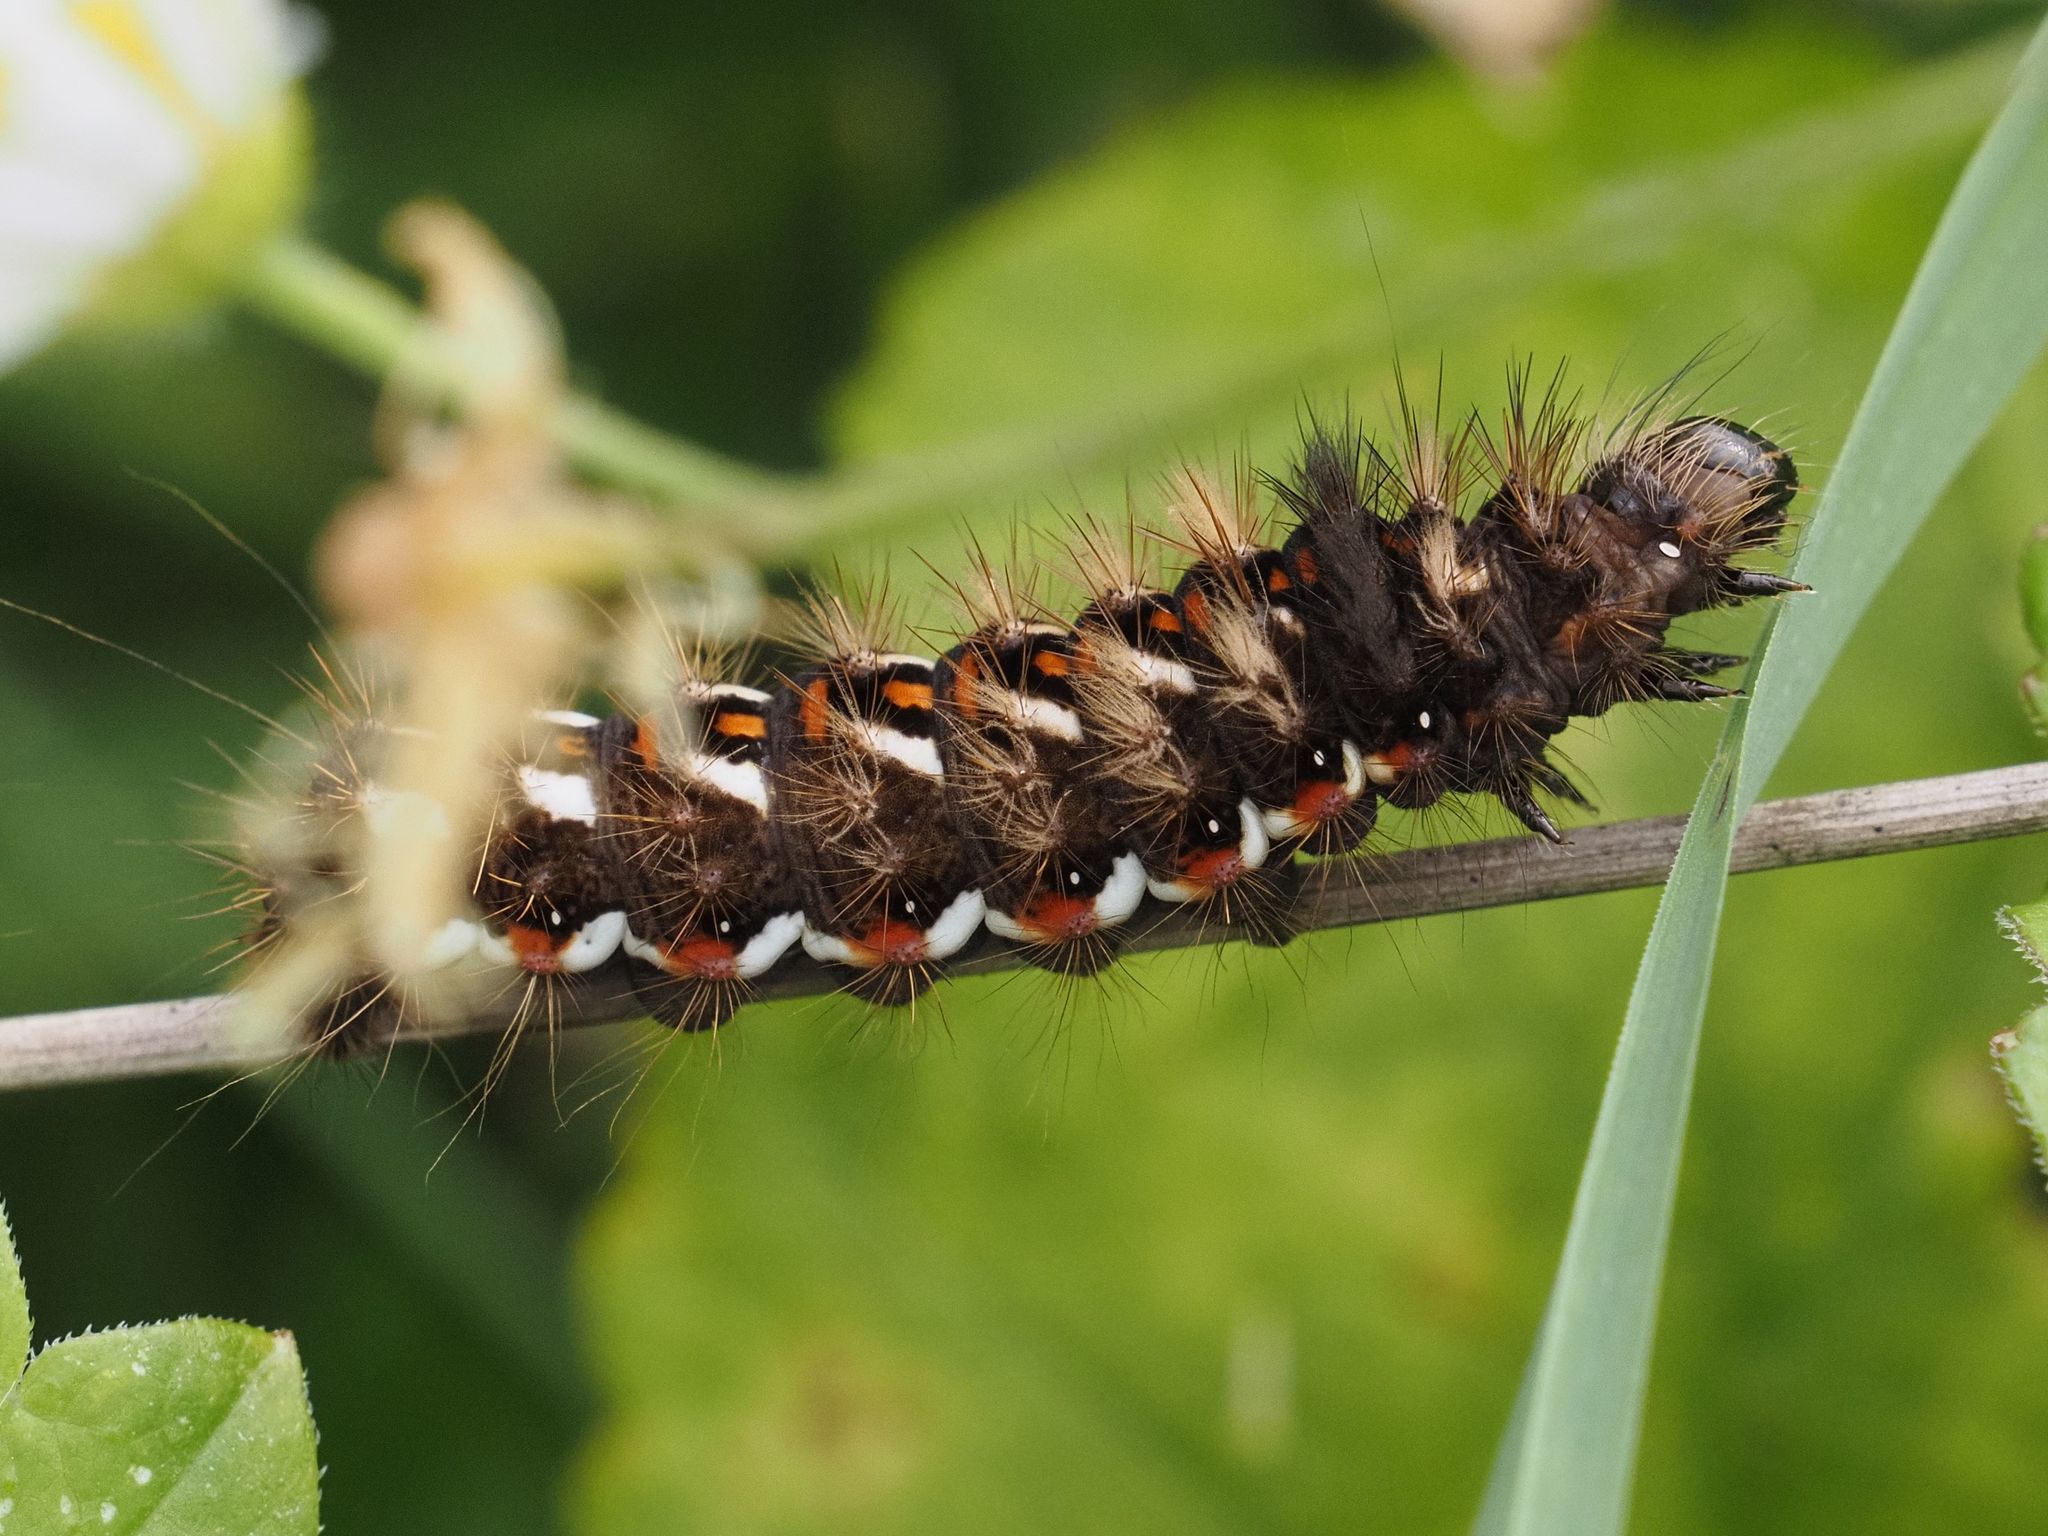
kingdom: Animalia
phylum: Arthropoda
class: Insecta
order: Lepidoptera
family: Noctuidae
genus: Acronicta
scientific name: Acronicta rumicis
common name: Knot grass
